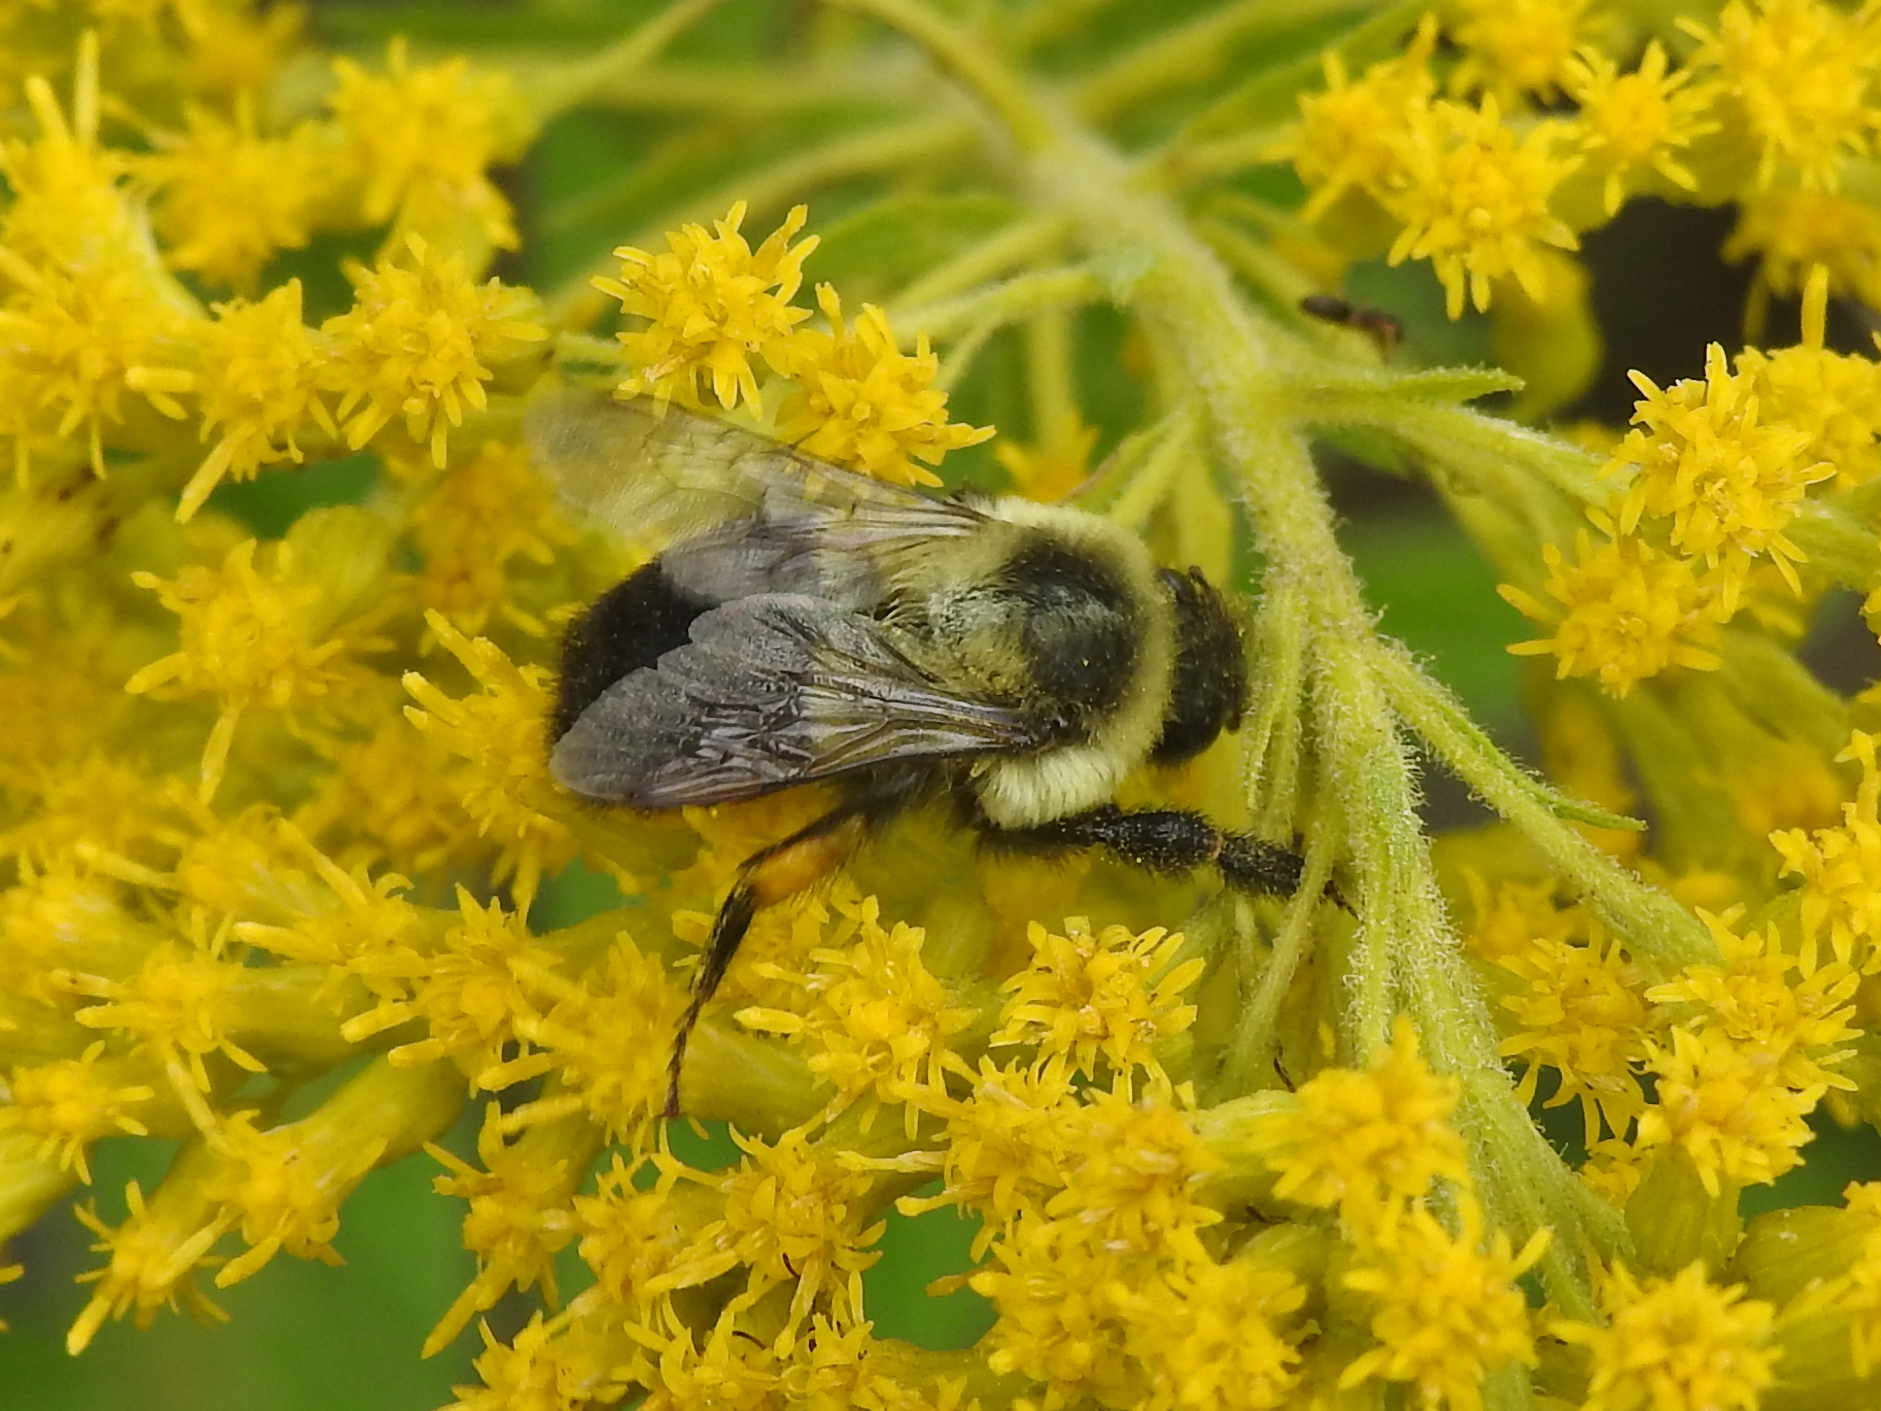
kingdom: Animalia
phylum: Arthropoda
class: Insecta
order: Hymenoptera
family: Apidae
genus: Bombus
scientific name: Bombus impatiens
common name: Common eastern bumble bee
